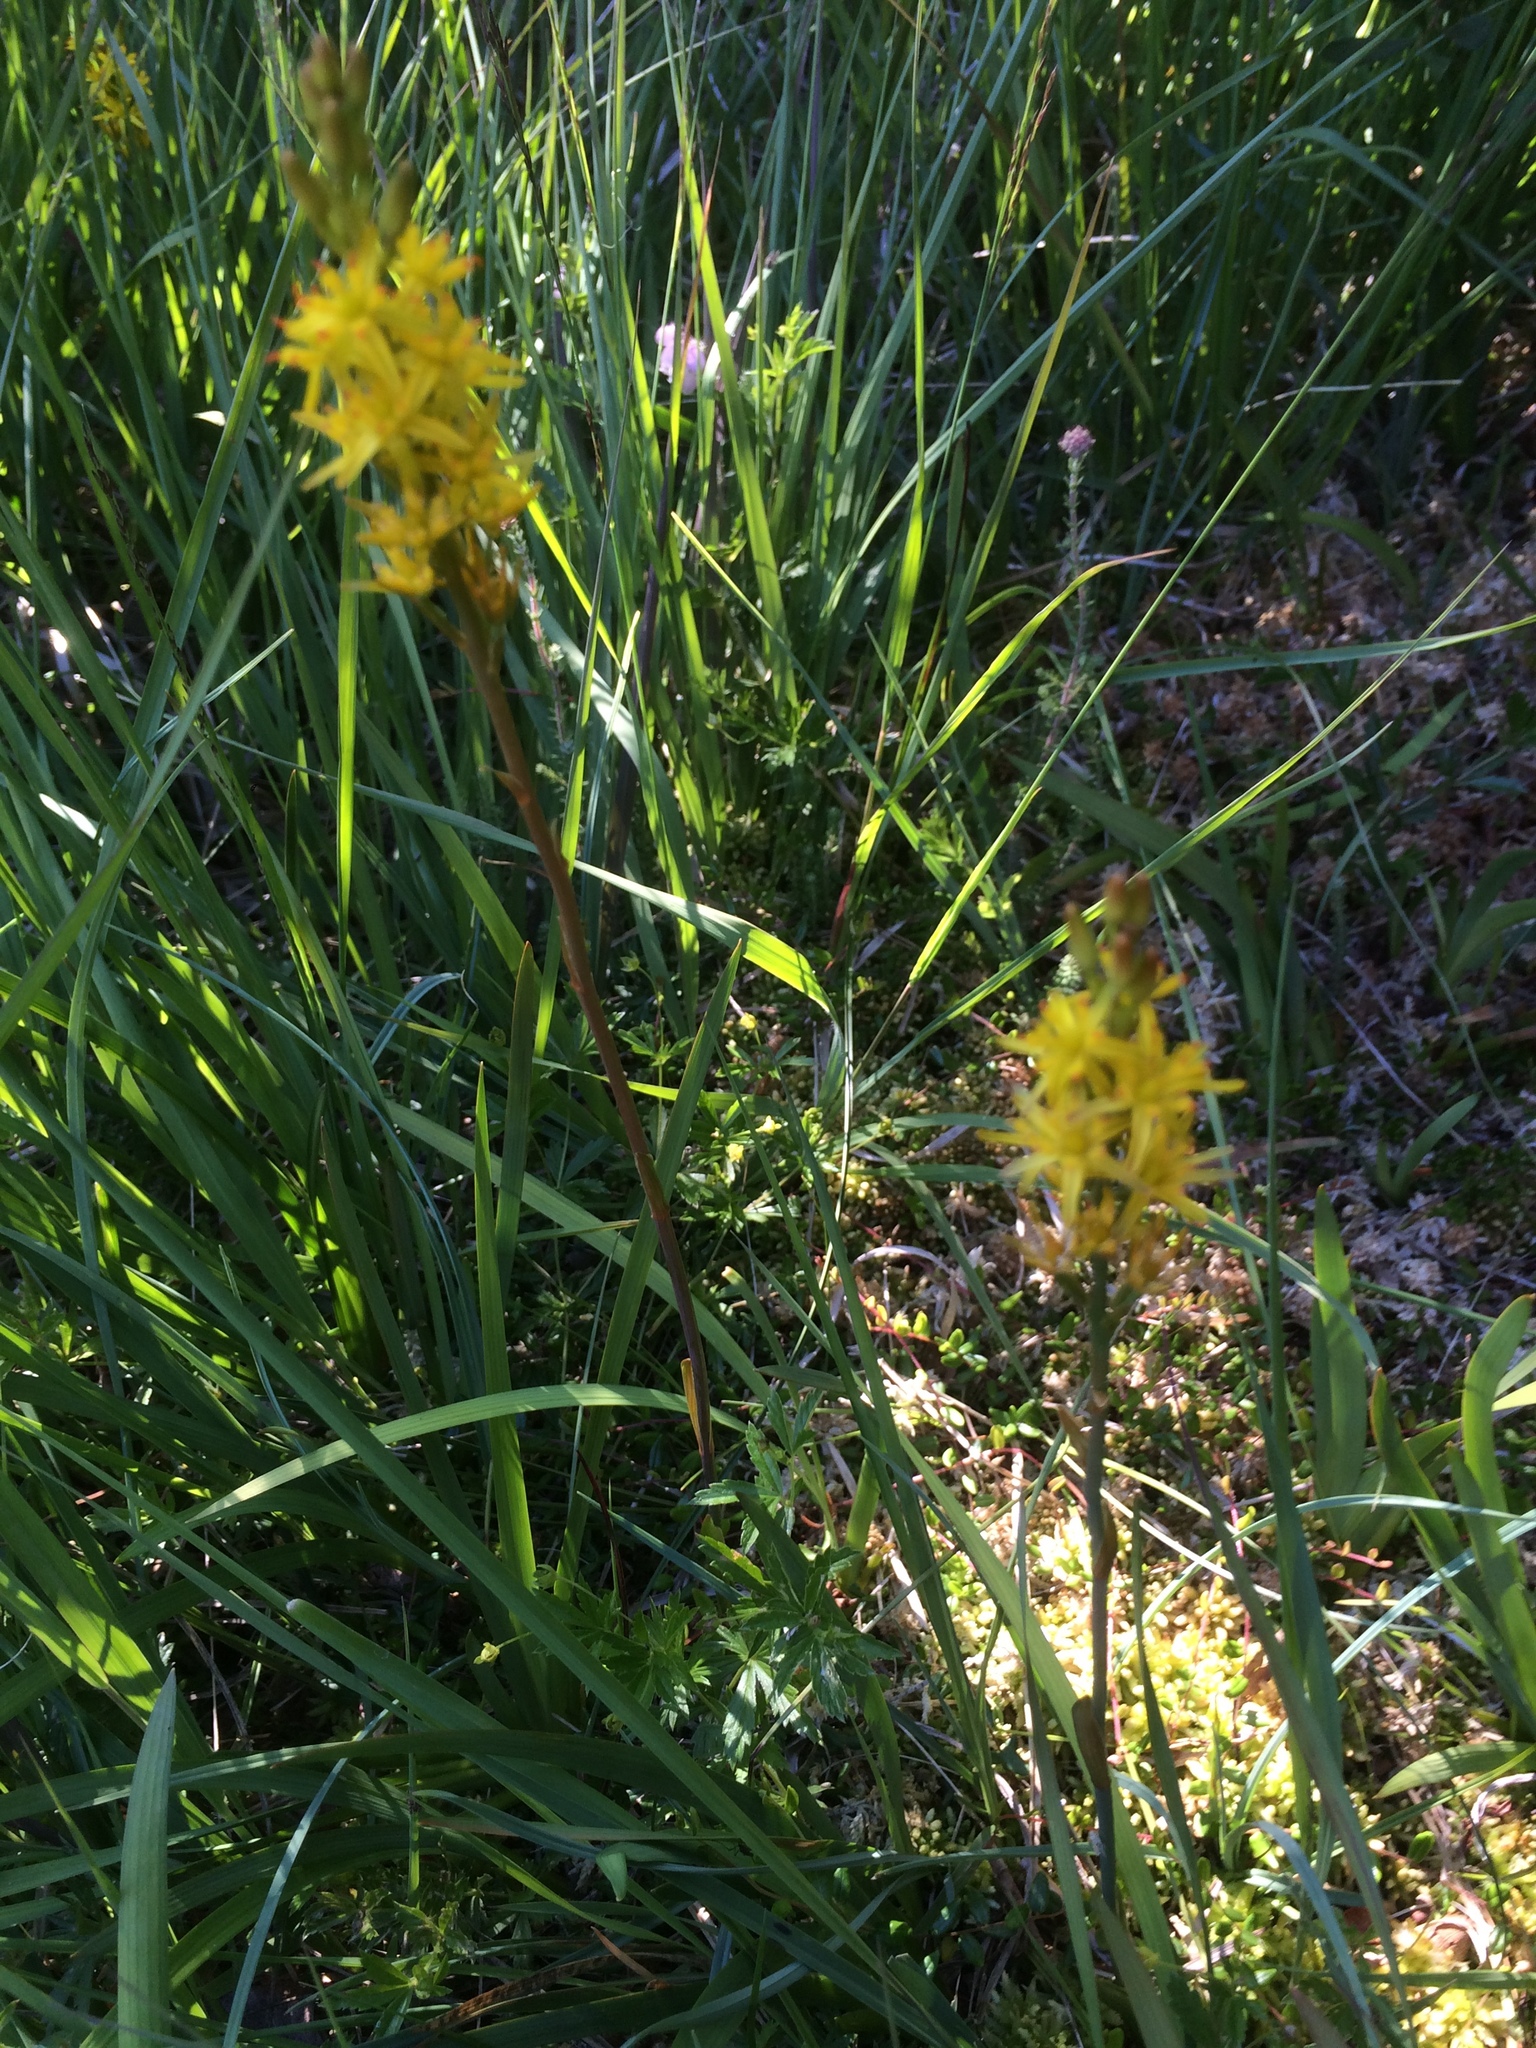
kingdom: Plantae
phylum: Tracheophyta
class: Liliopsida
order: Dioscoreales
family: Nartheciaceae
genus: Narthecium
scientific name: Narthecium ossifragum
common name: Bog asphodel
